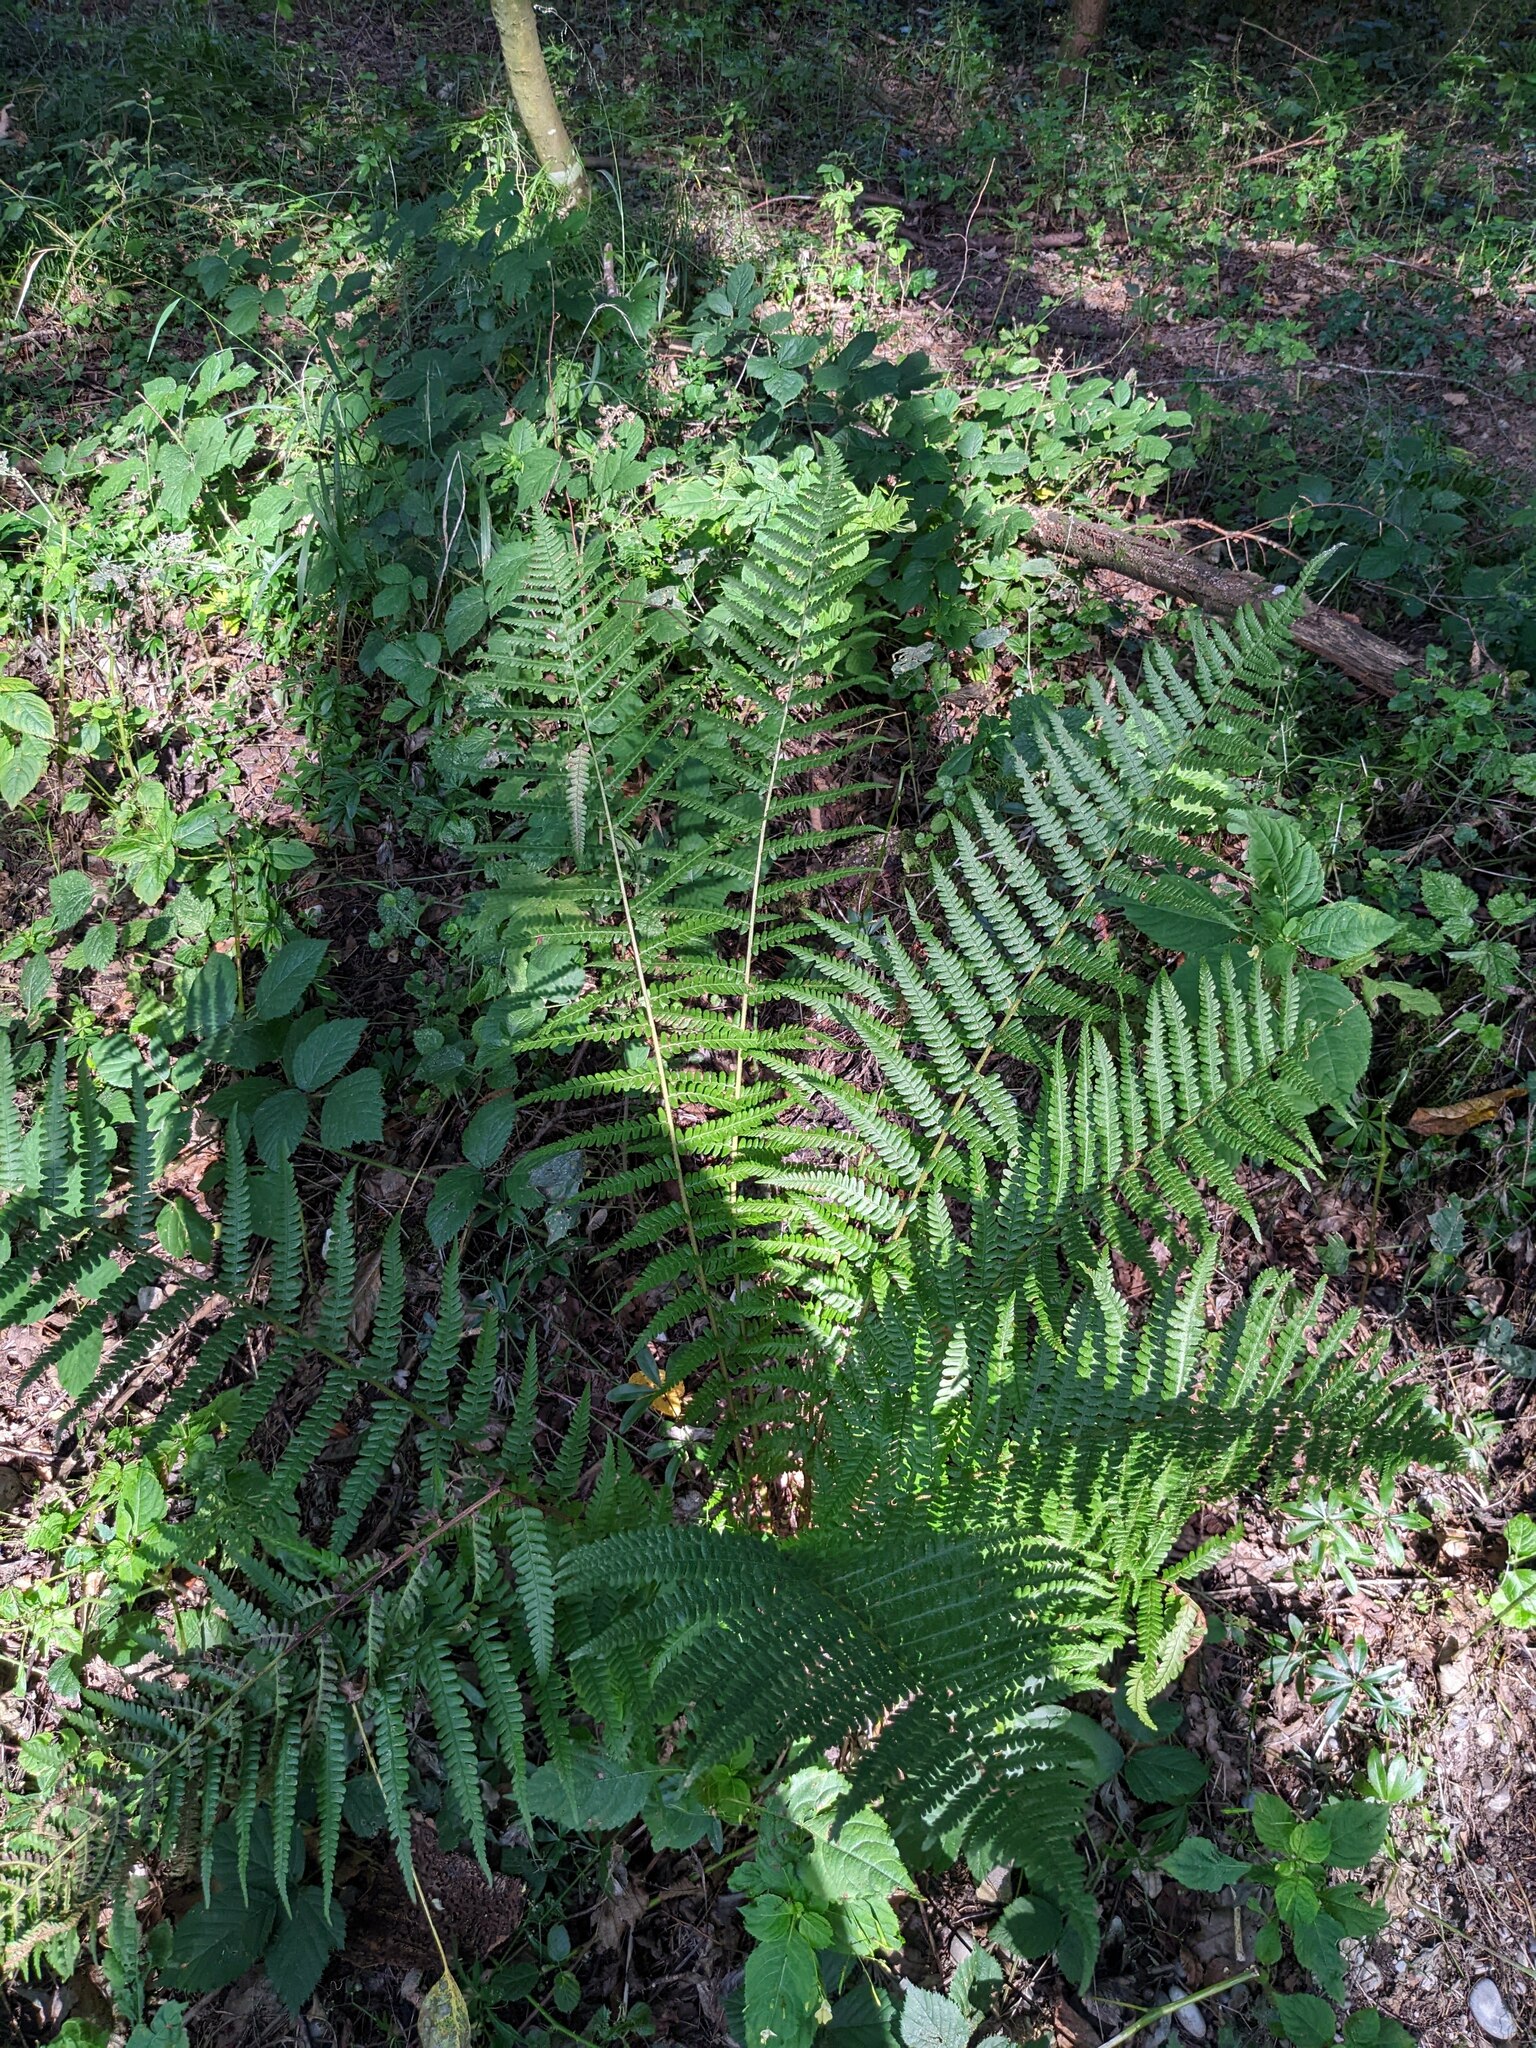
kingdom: Plantae
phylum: Tracheophyta
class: Polypodiopsida
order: Polypodiales
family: Dryopteridaceae
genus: Dryopteris
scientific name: Dryopteris filix-mas
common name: Male fern
